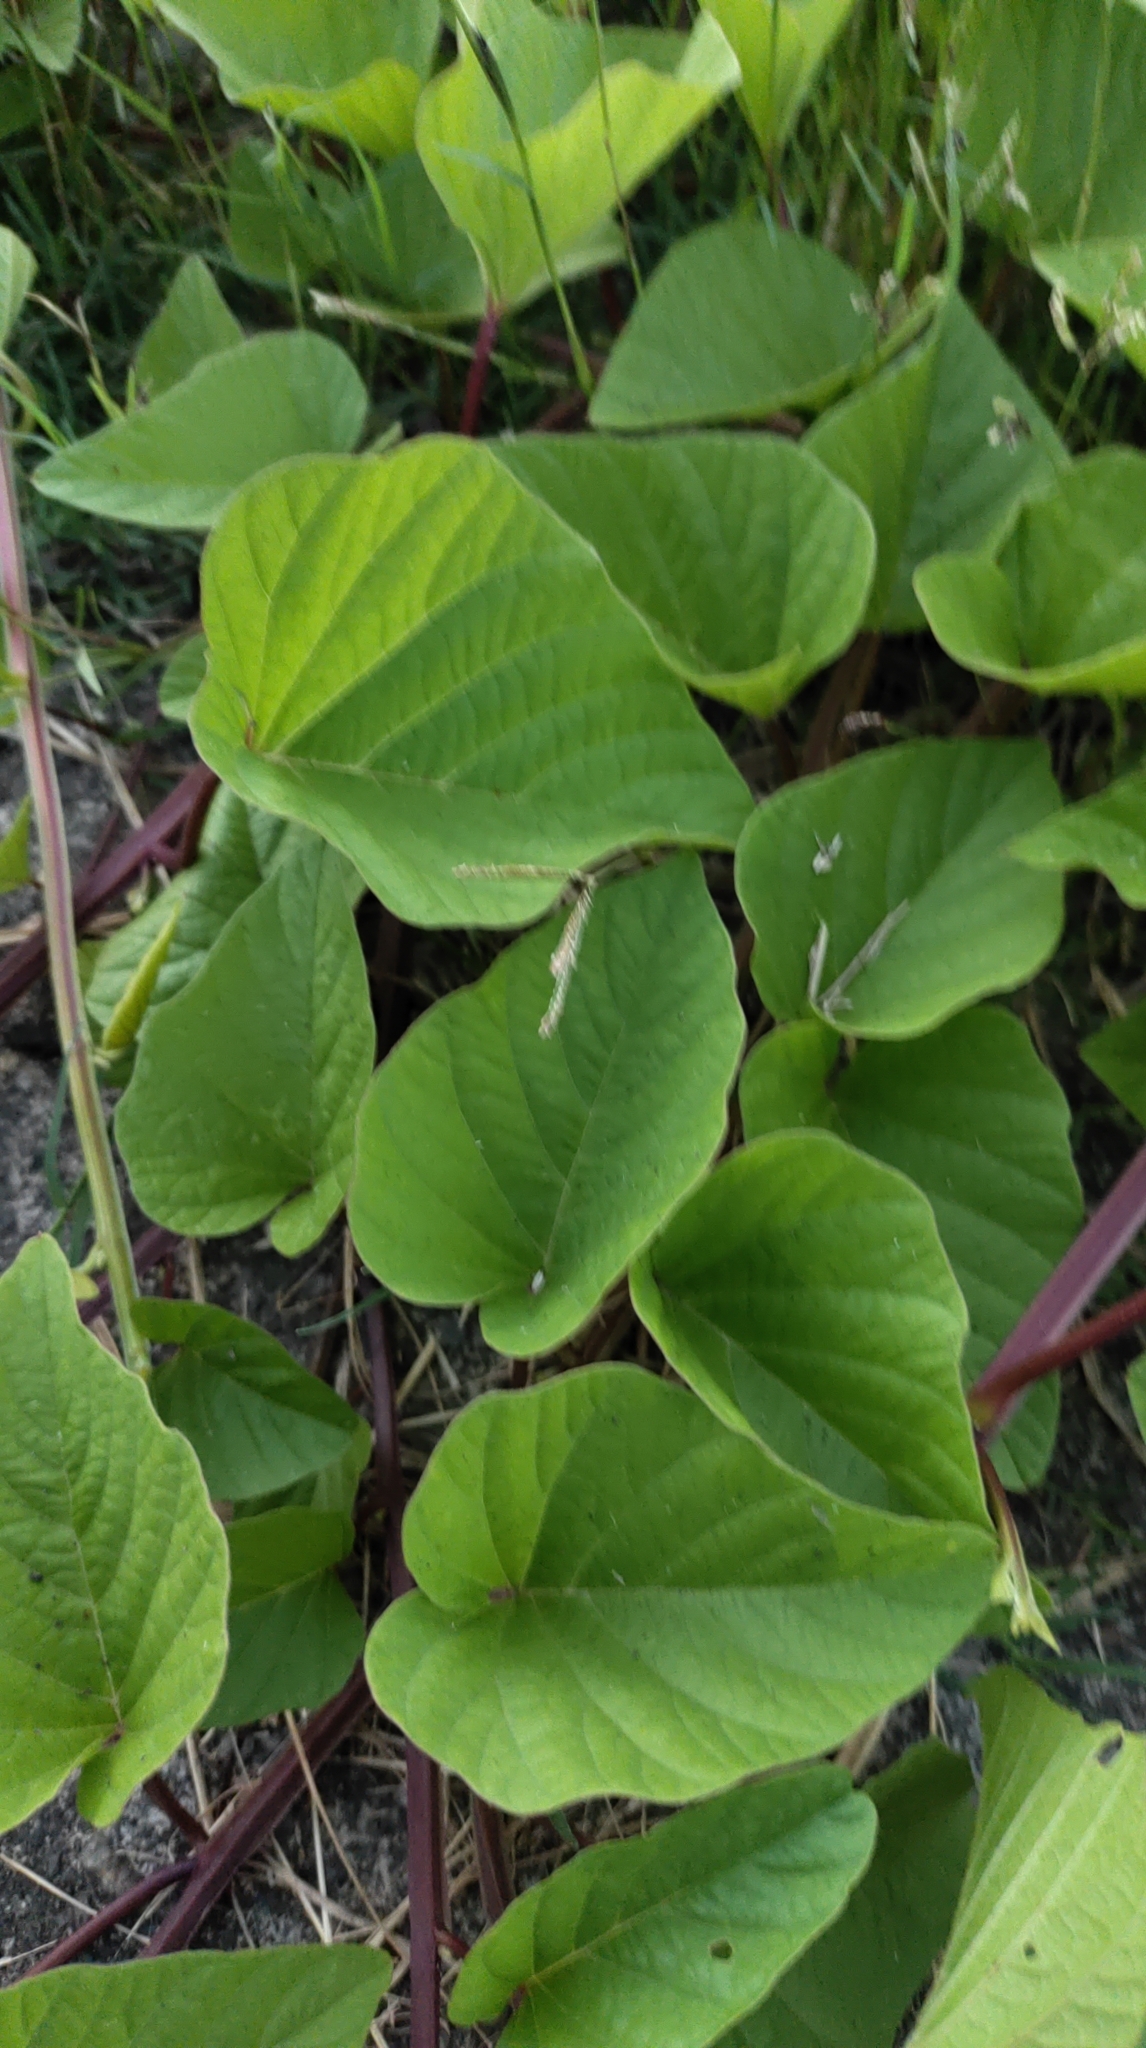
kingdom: Plantae
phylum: Tracheophyta
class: Magnoliopsida
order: Solanales
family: Convolvulaceae
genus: Operculina
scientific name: Operculina turpethum
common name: Transparent wood-rose
